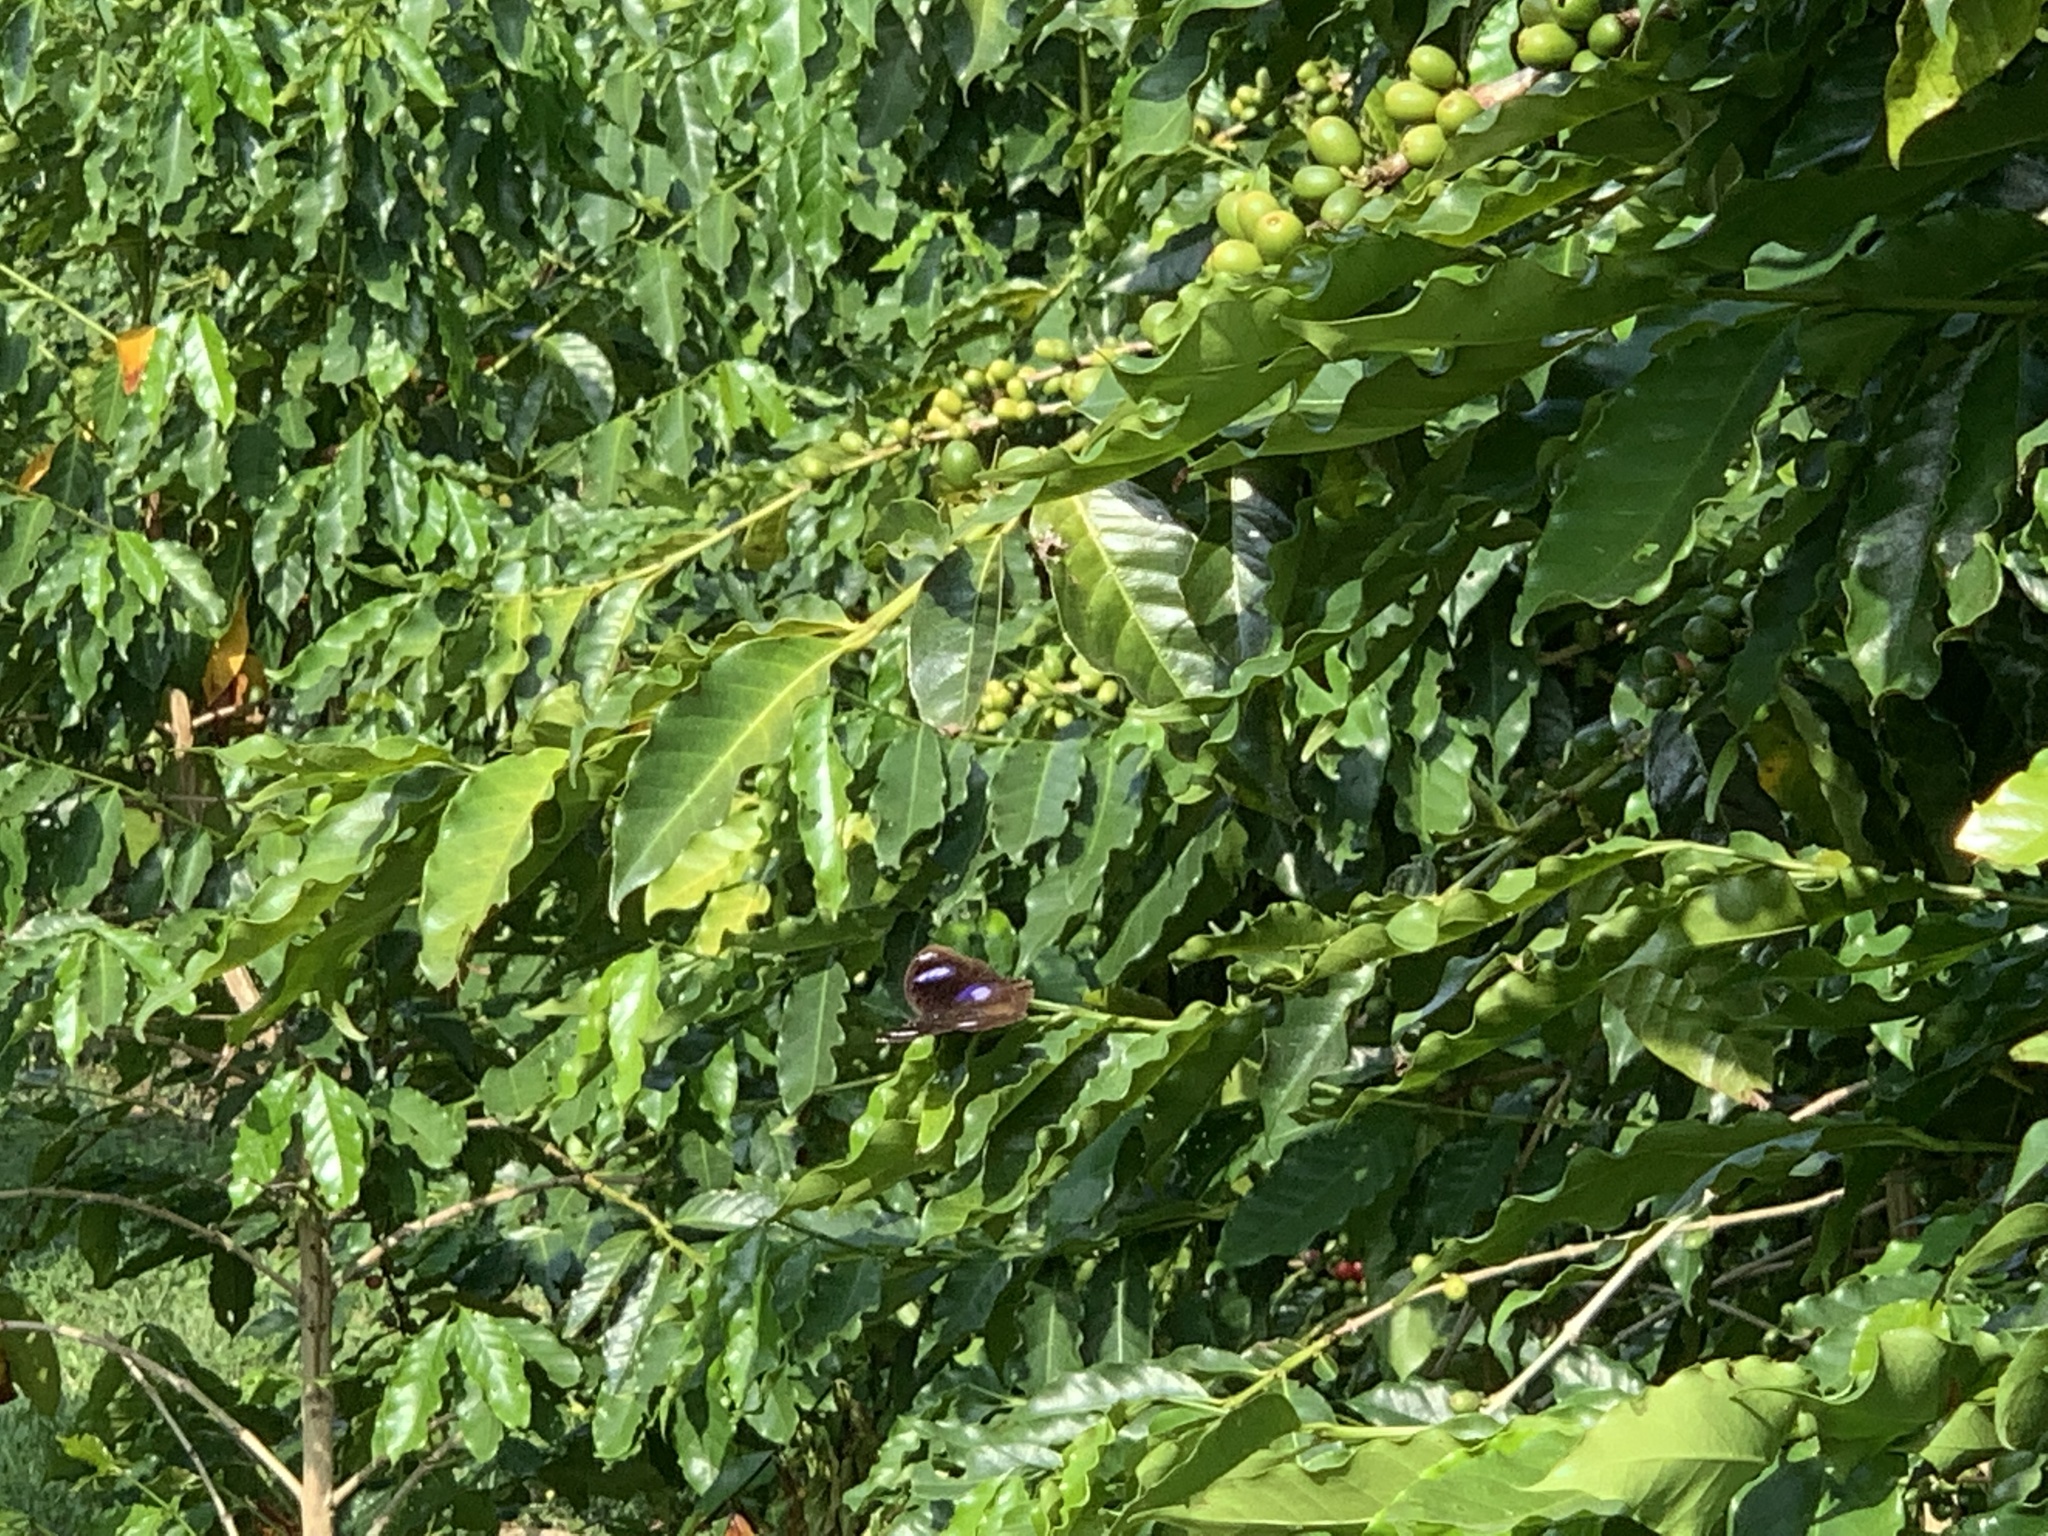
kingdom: Animalia
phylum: Arthropoda
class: Insecta
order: Lepidoptera
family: Nymphalidae
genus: Hypolimnas
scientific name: Hypolimnas bolina
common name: Great eggfly
